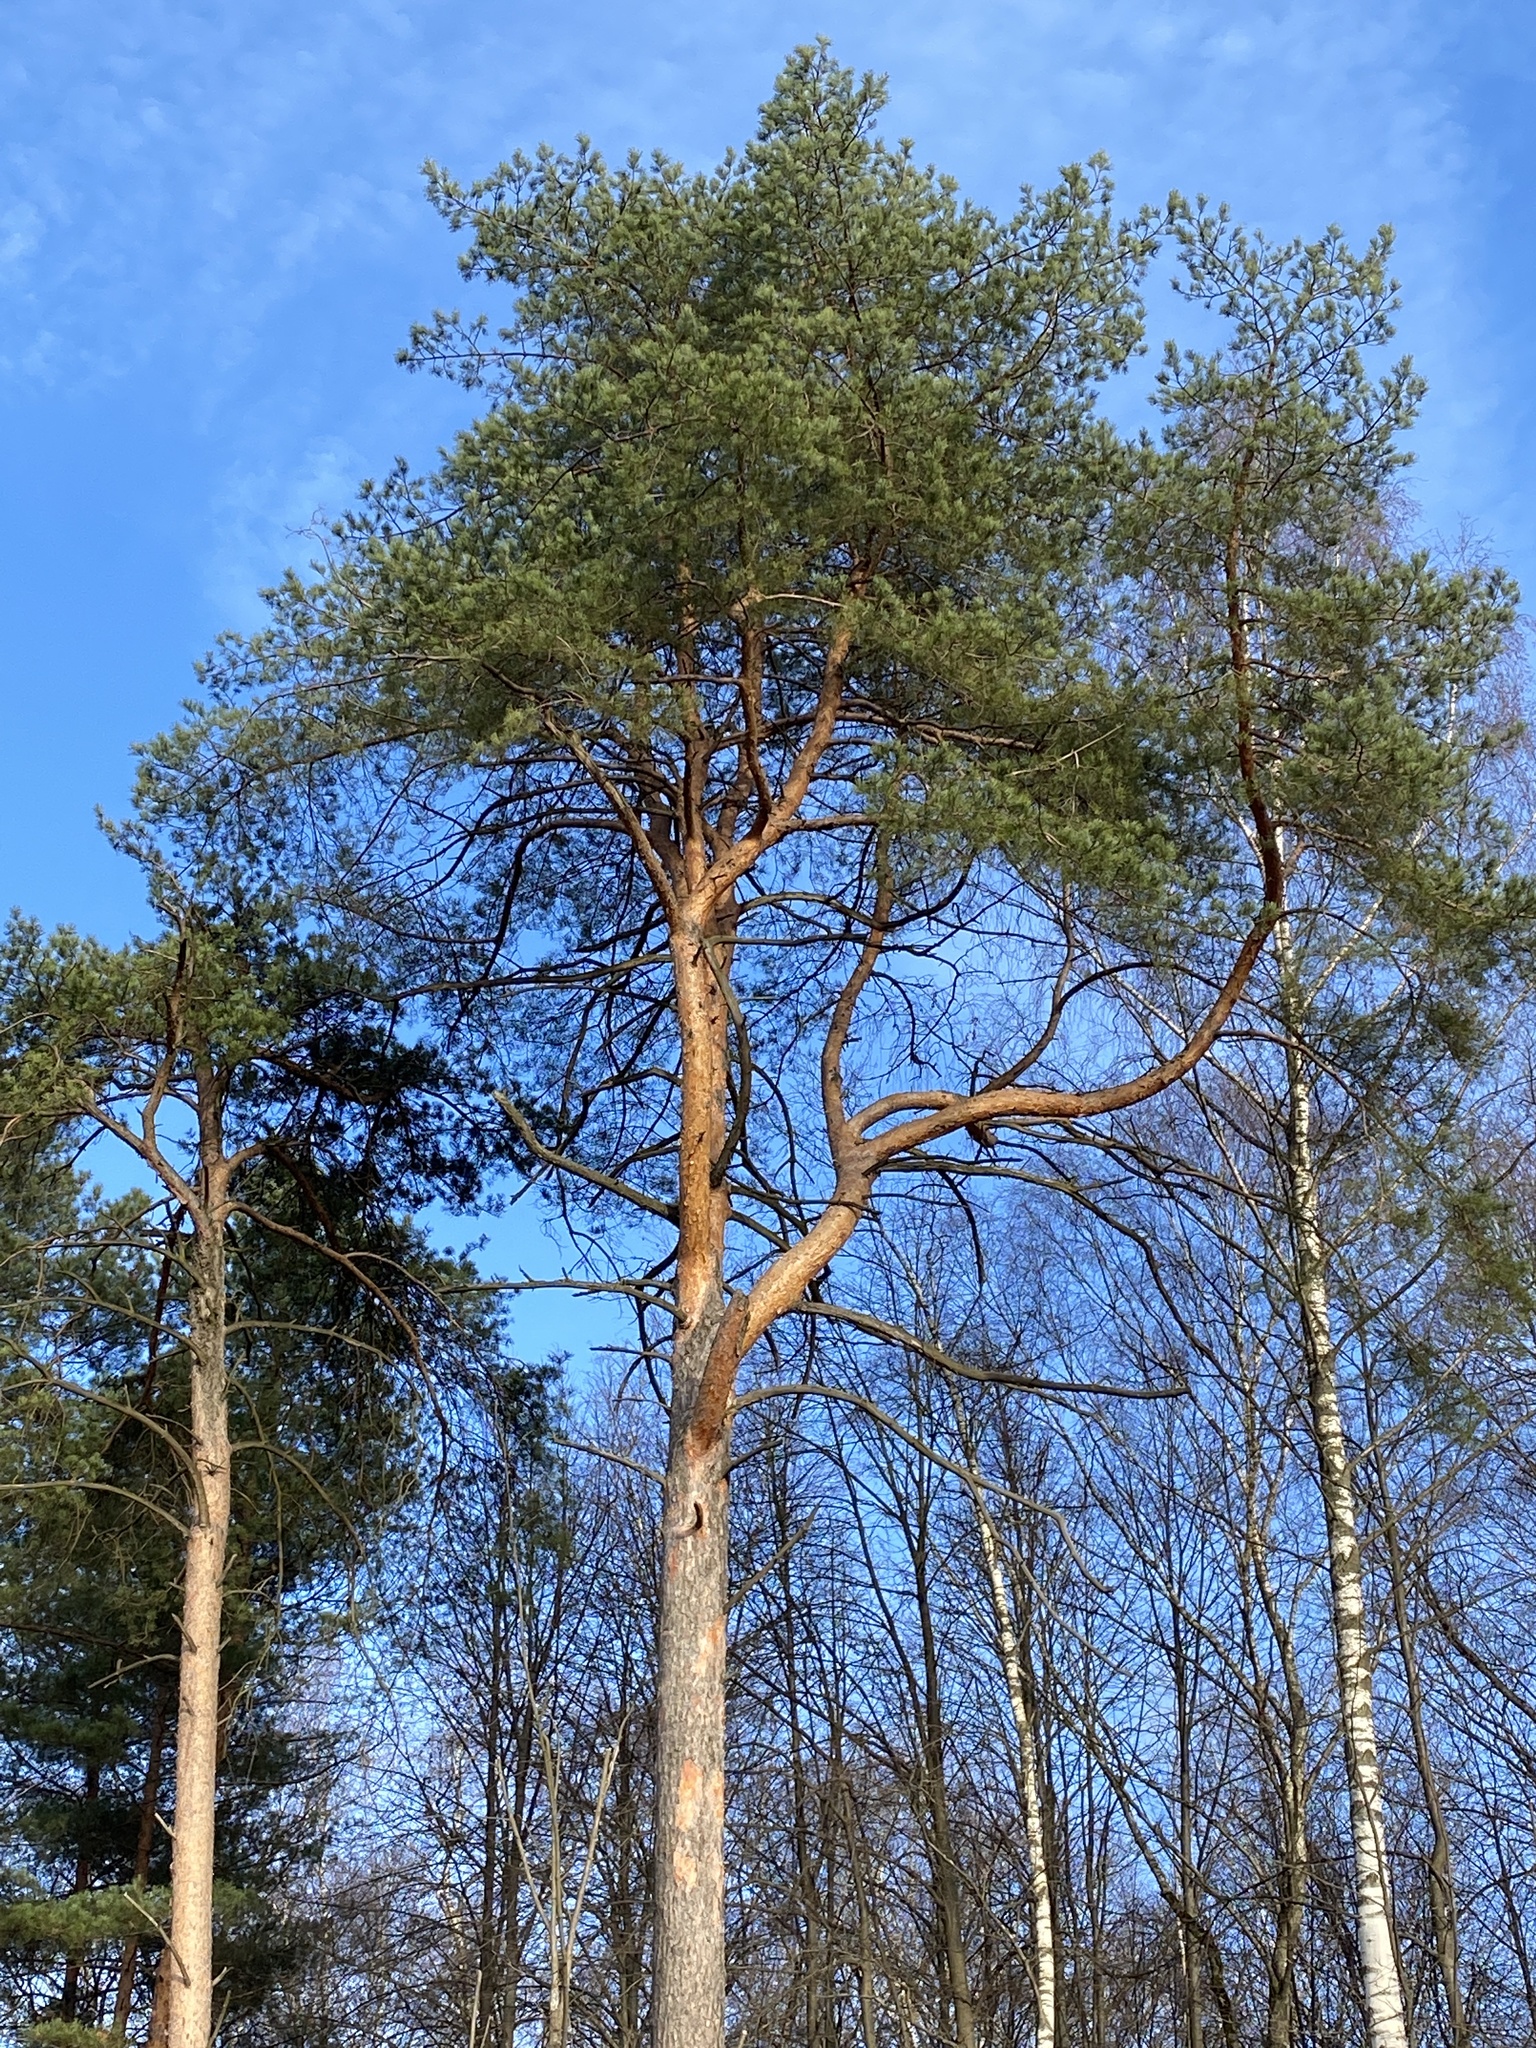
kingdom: Plantae
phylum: Tracheophyta
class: Pinopsida
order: Pinales
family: Pinaceae
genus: Pinus
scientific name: Pinus sylvestris
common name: Scots pine
